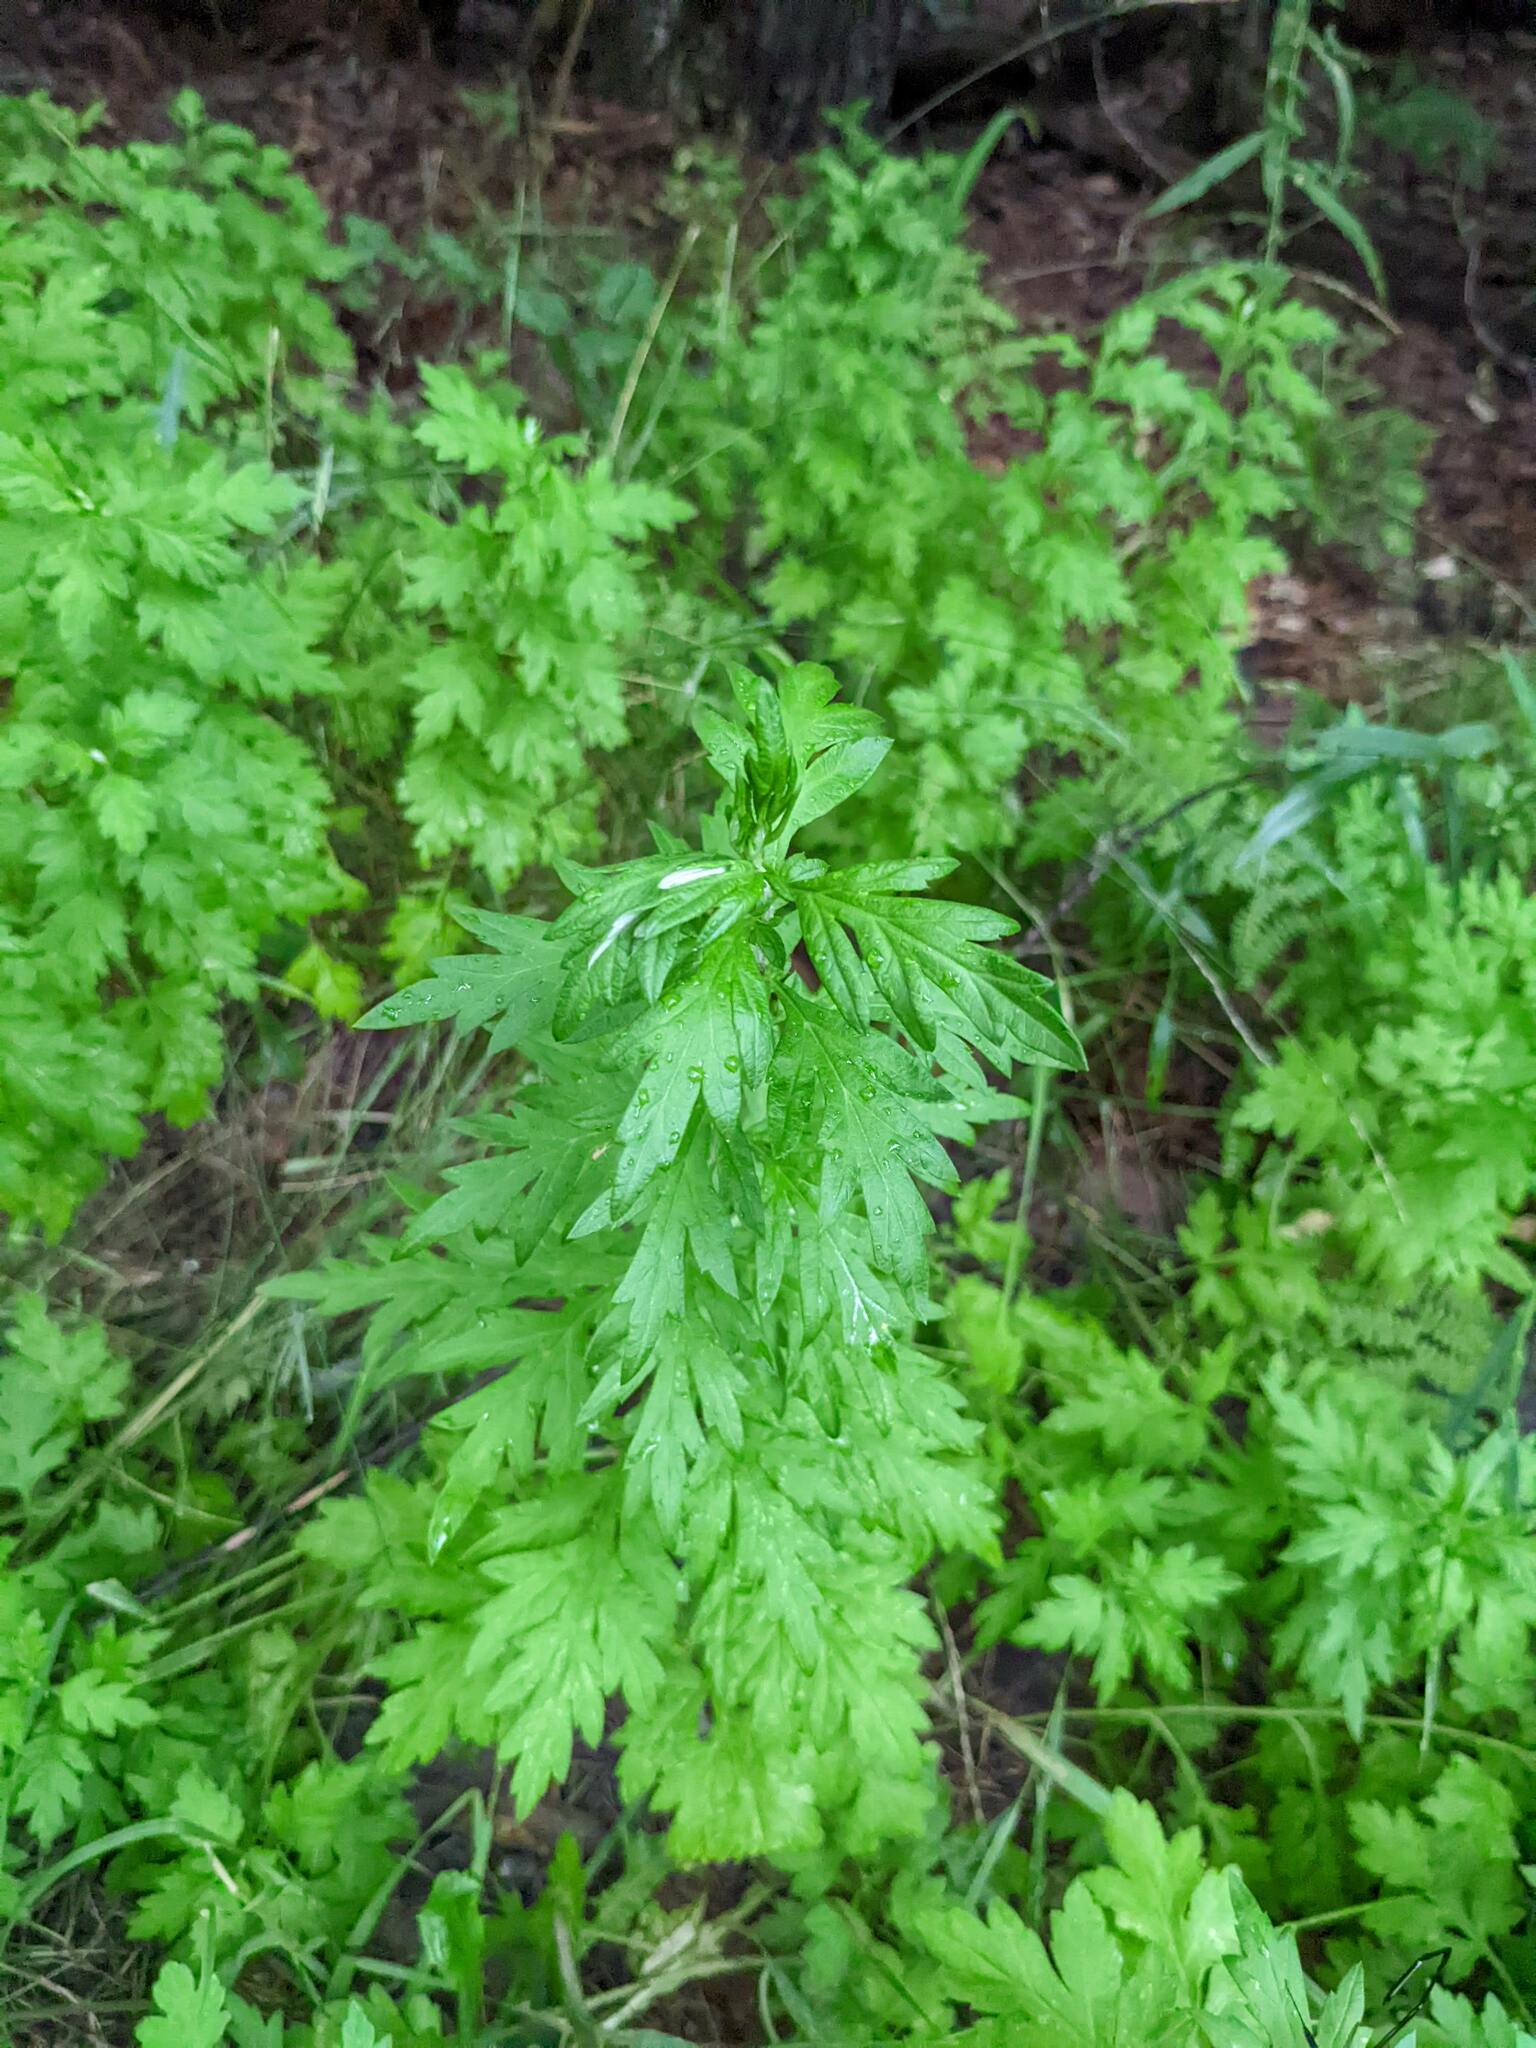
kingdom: Plantae
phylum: Tracheophyta
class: Magnoliopsida
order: Asterales
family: Asteraceae
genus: Artemisia
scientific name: Artemisia vulgaris
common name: Mugwort
